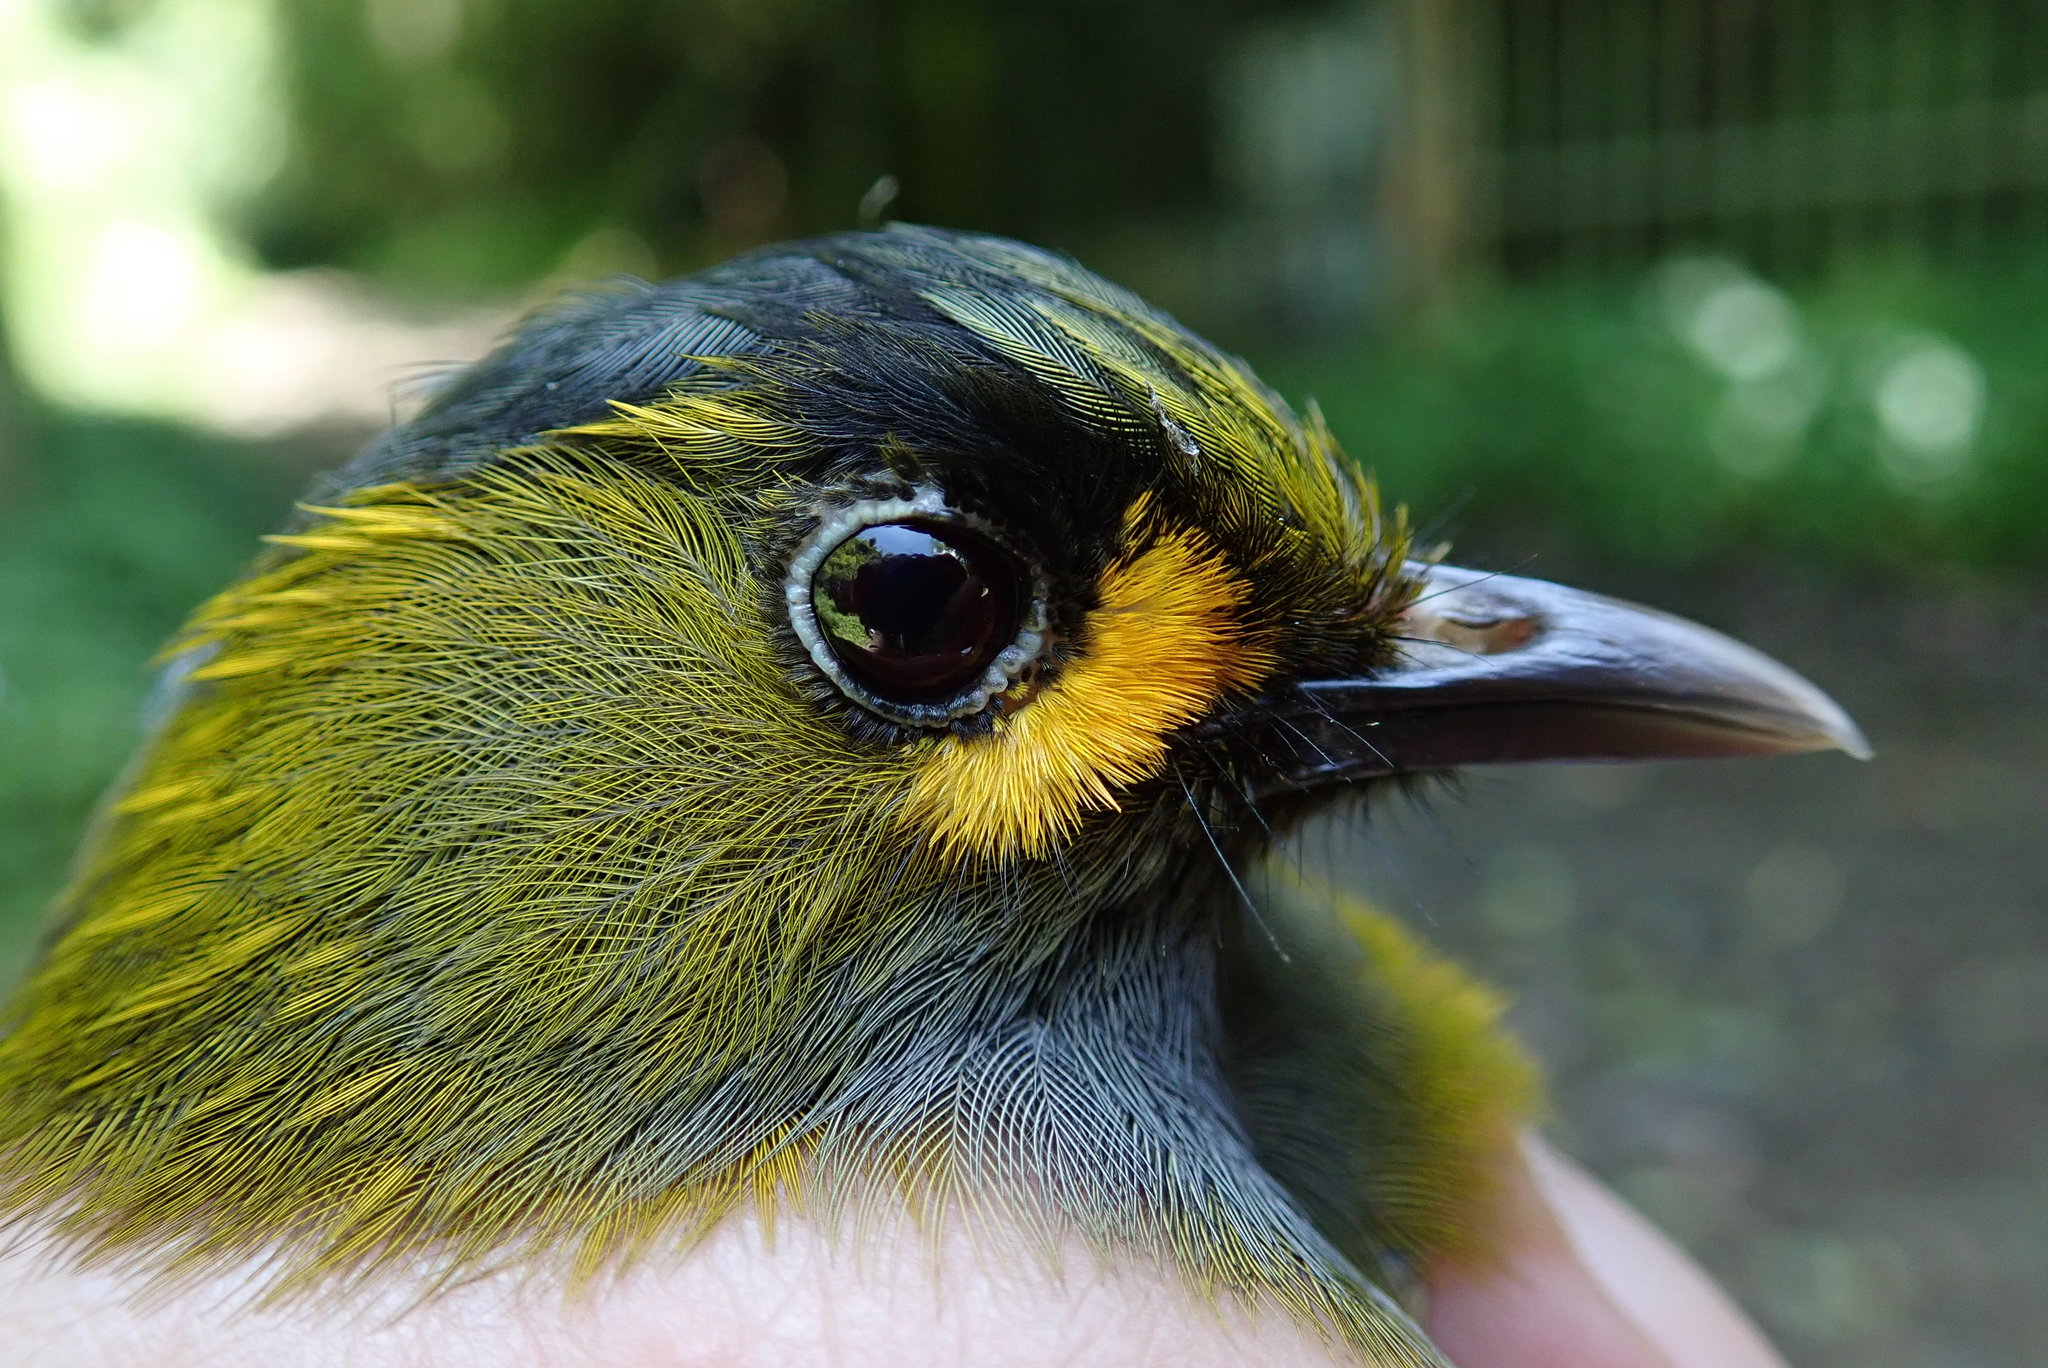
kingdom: Animalia
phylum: Chordata
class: Aves
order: Passeriformes
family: Leiothrichidae
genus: Liocichla
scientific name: Liocichla steerii
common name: Steere's liocichla
